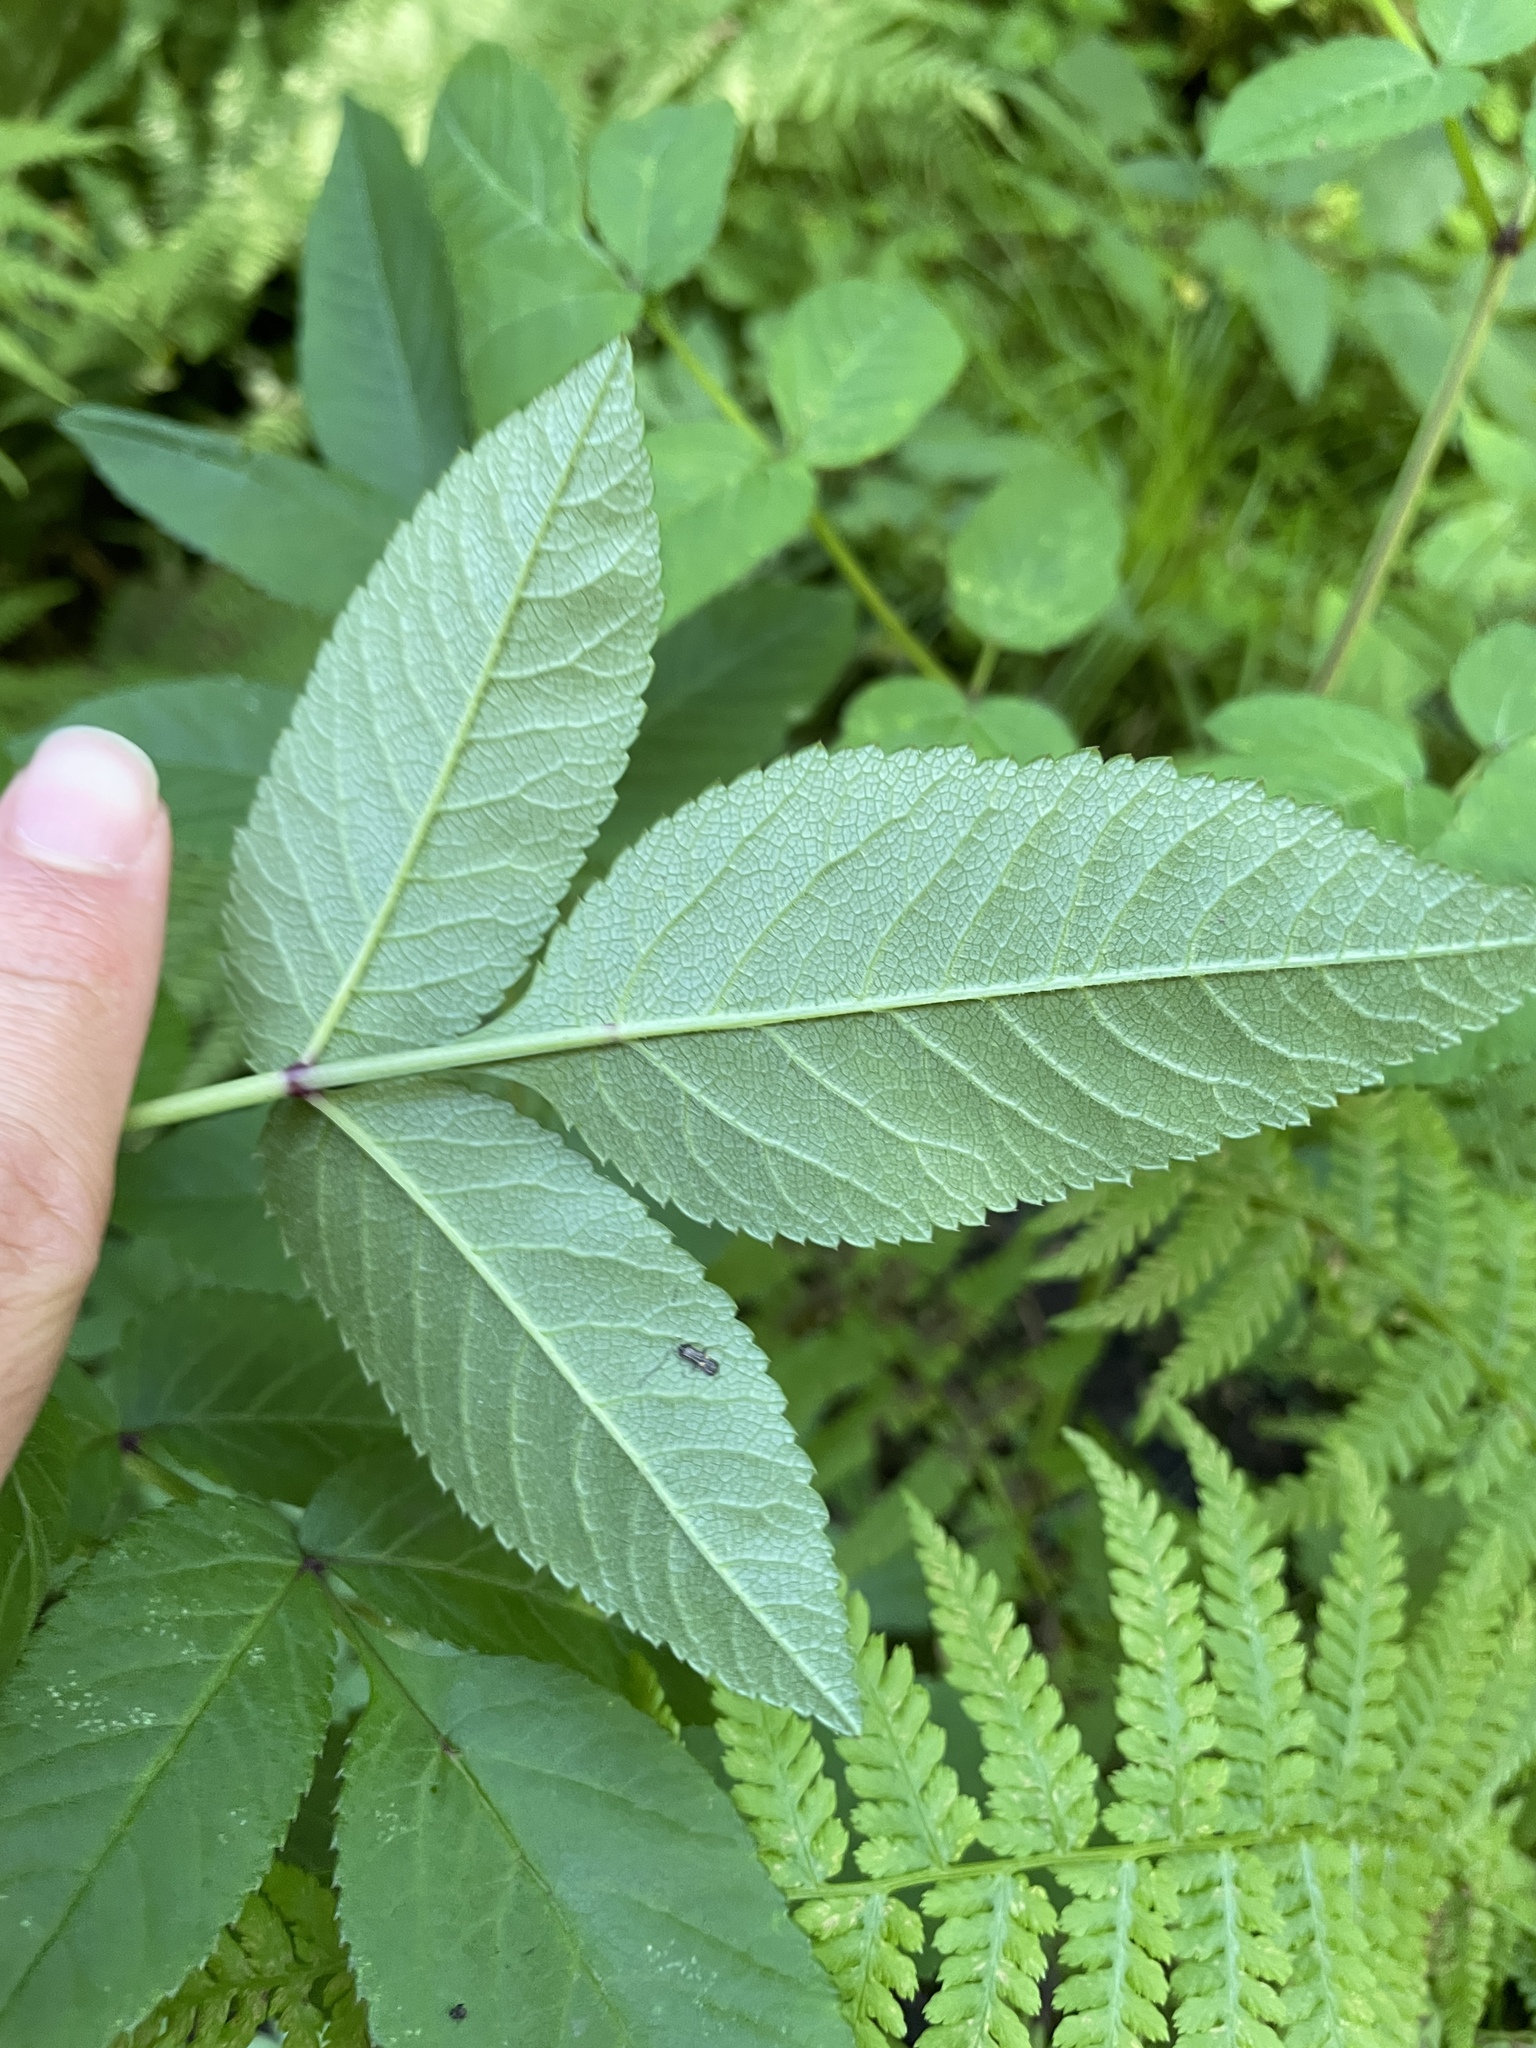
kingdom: Plantae
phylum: Tracheophyta
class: Magnoliopsida
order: Apiales
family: Apiaceae
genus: Angelica
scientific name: Angelica sylvestris
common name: Wild angelica
